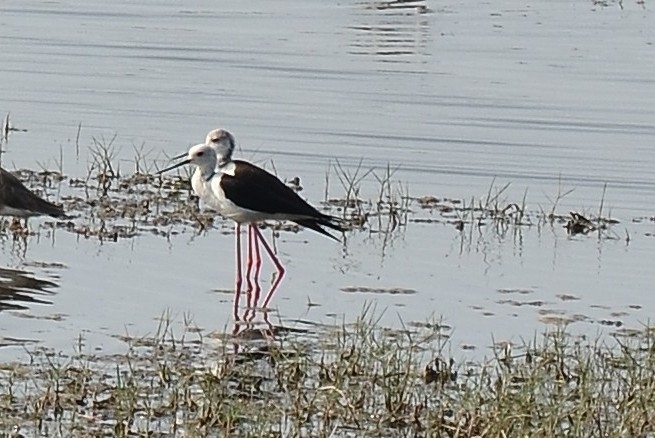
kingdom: Animalia
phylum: Chordata
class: Aves
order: Charadriiformes
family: Recurvirostridae
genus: Himantopus
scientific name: Himantopus himantopus
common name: Black-winged stilt
